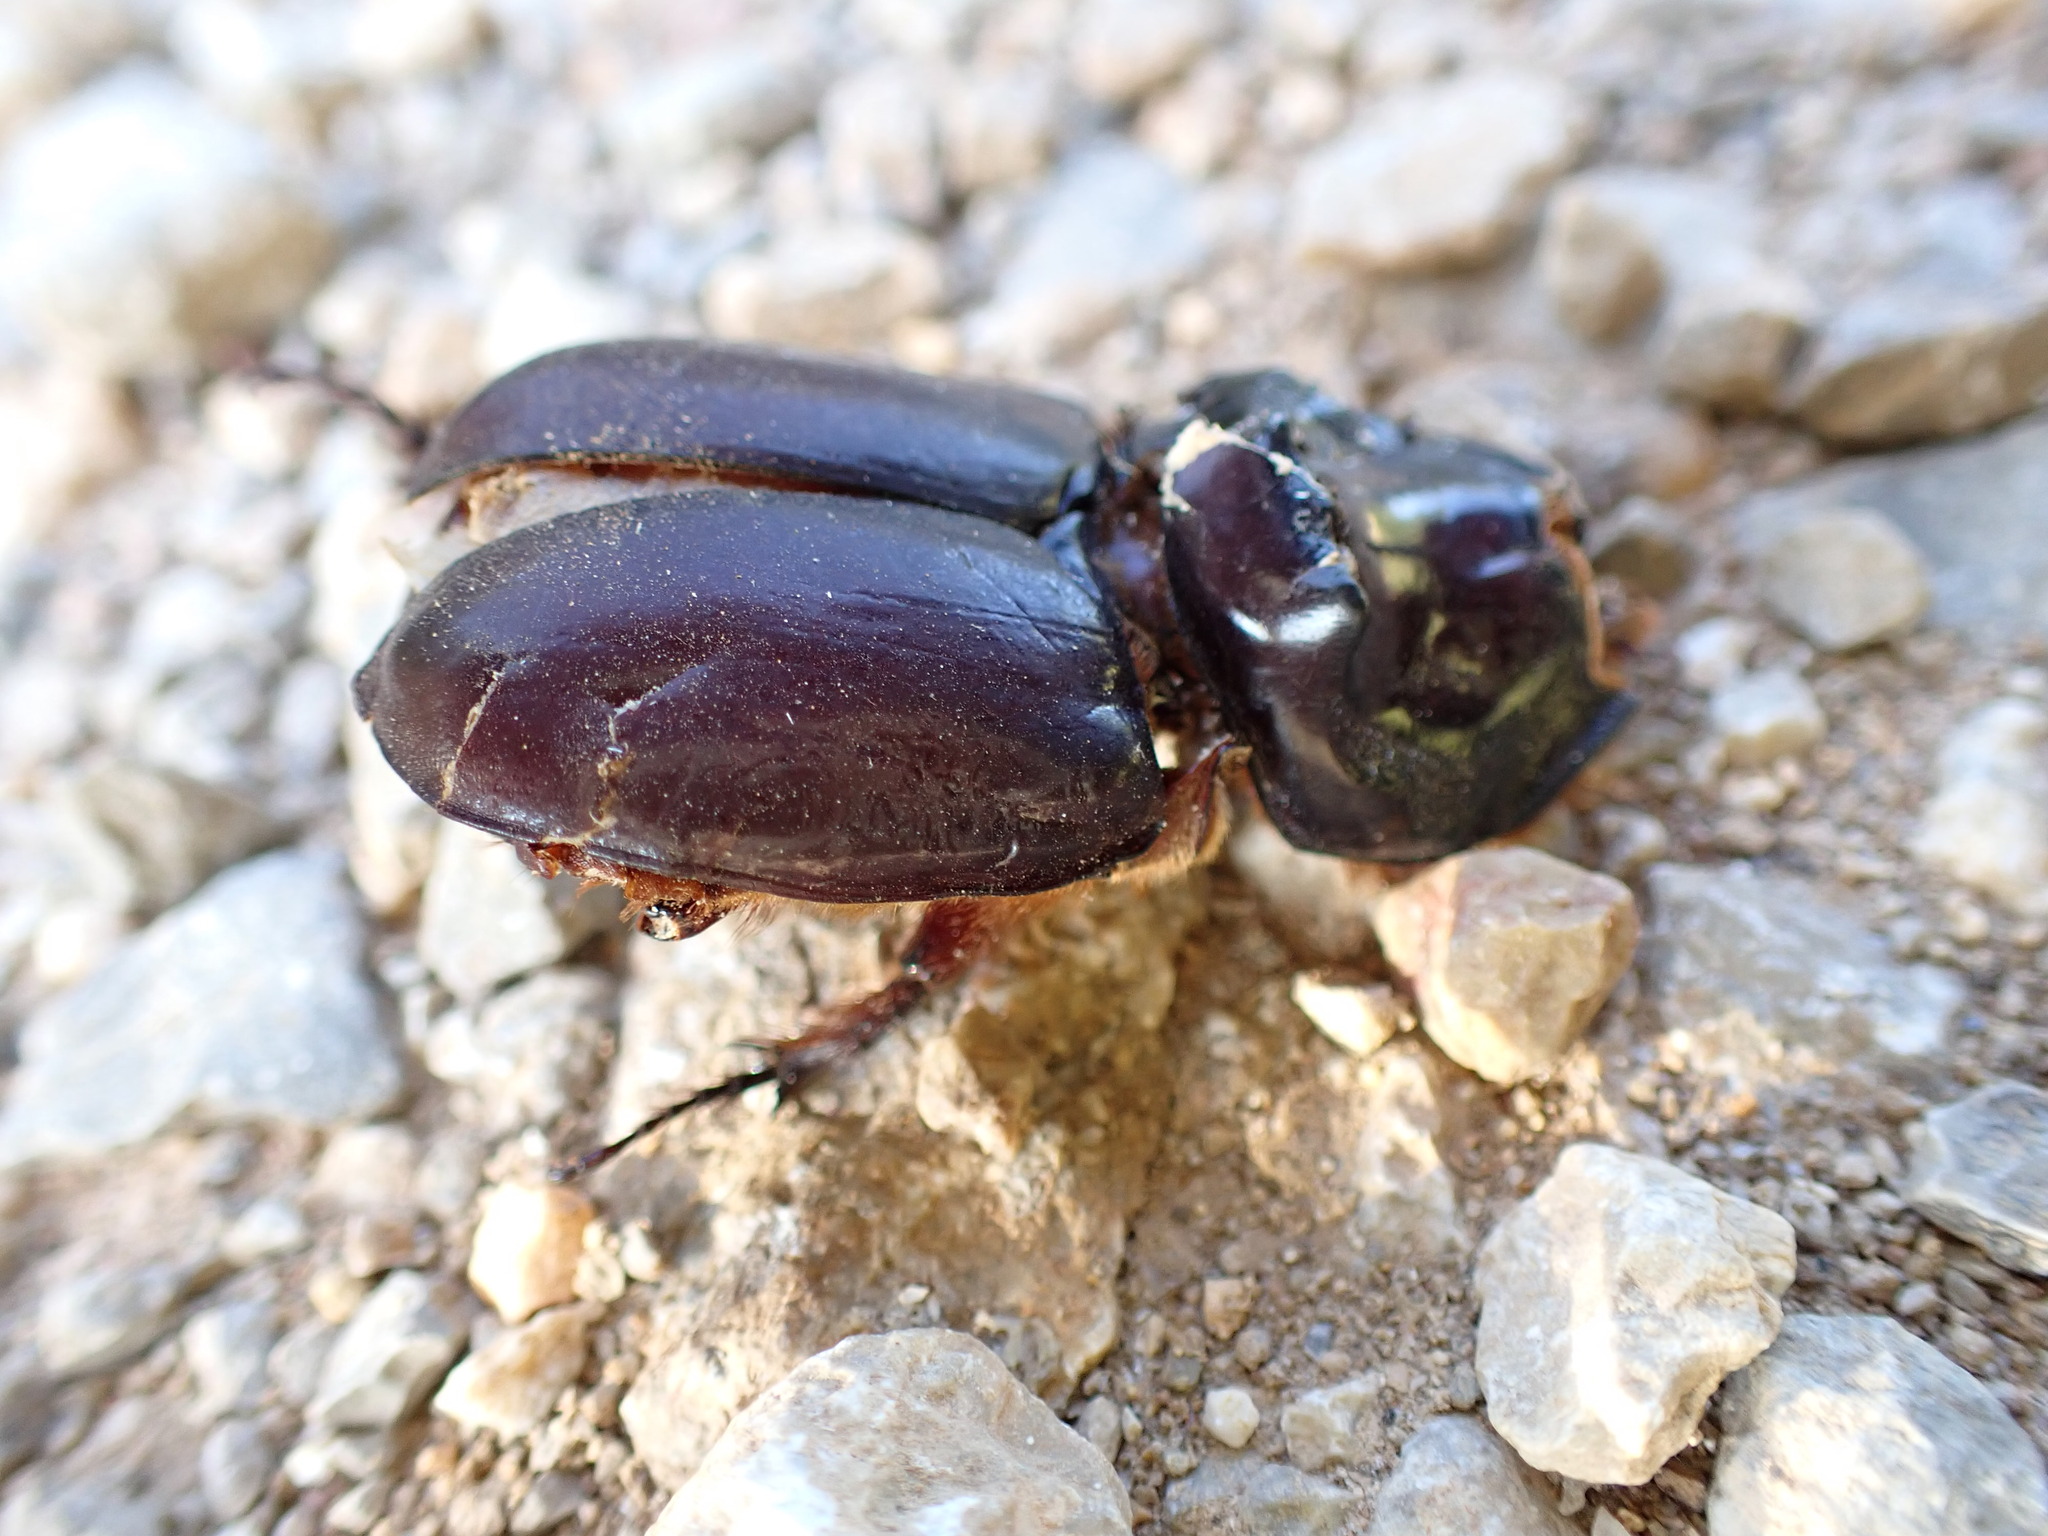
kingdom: Animalia
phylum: Arthropoda
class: Insecta
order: Coleoptera
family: Scarabaeidae
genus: Oryctes
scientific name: Oryctes nasicornis
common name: European rhinoceros beetle
